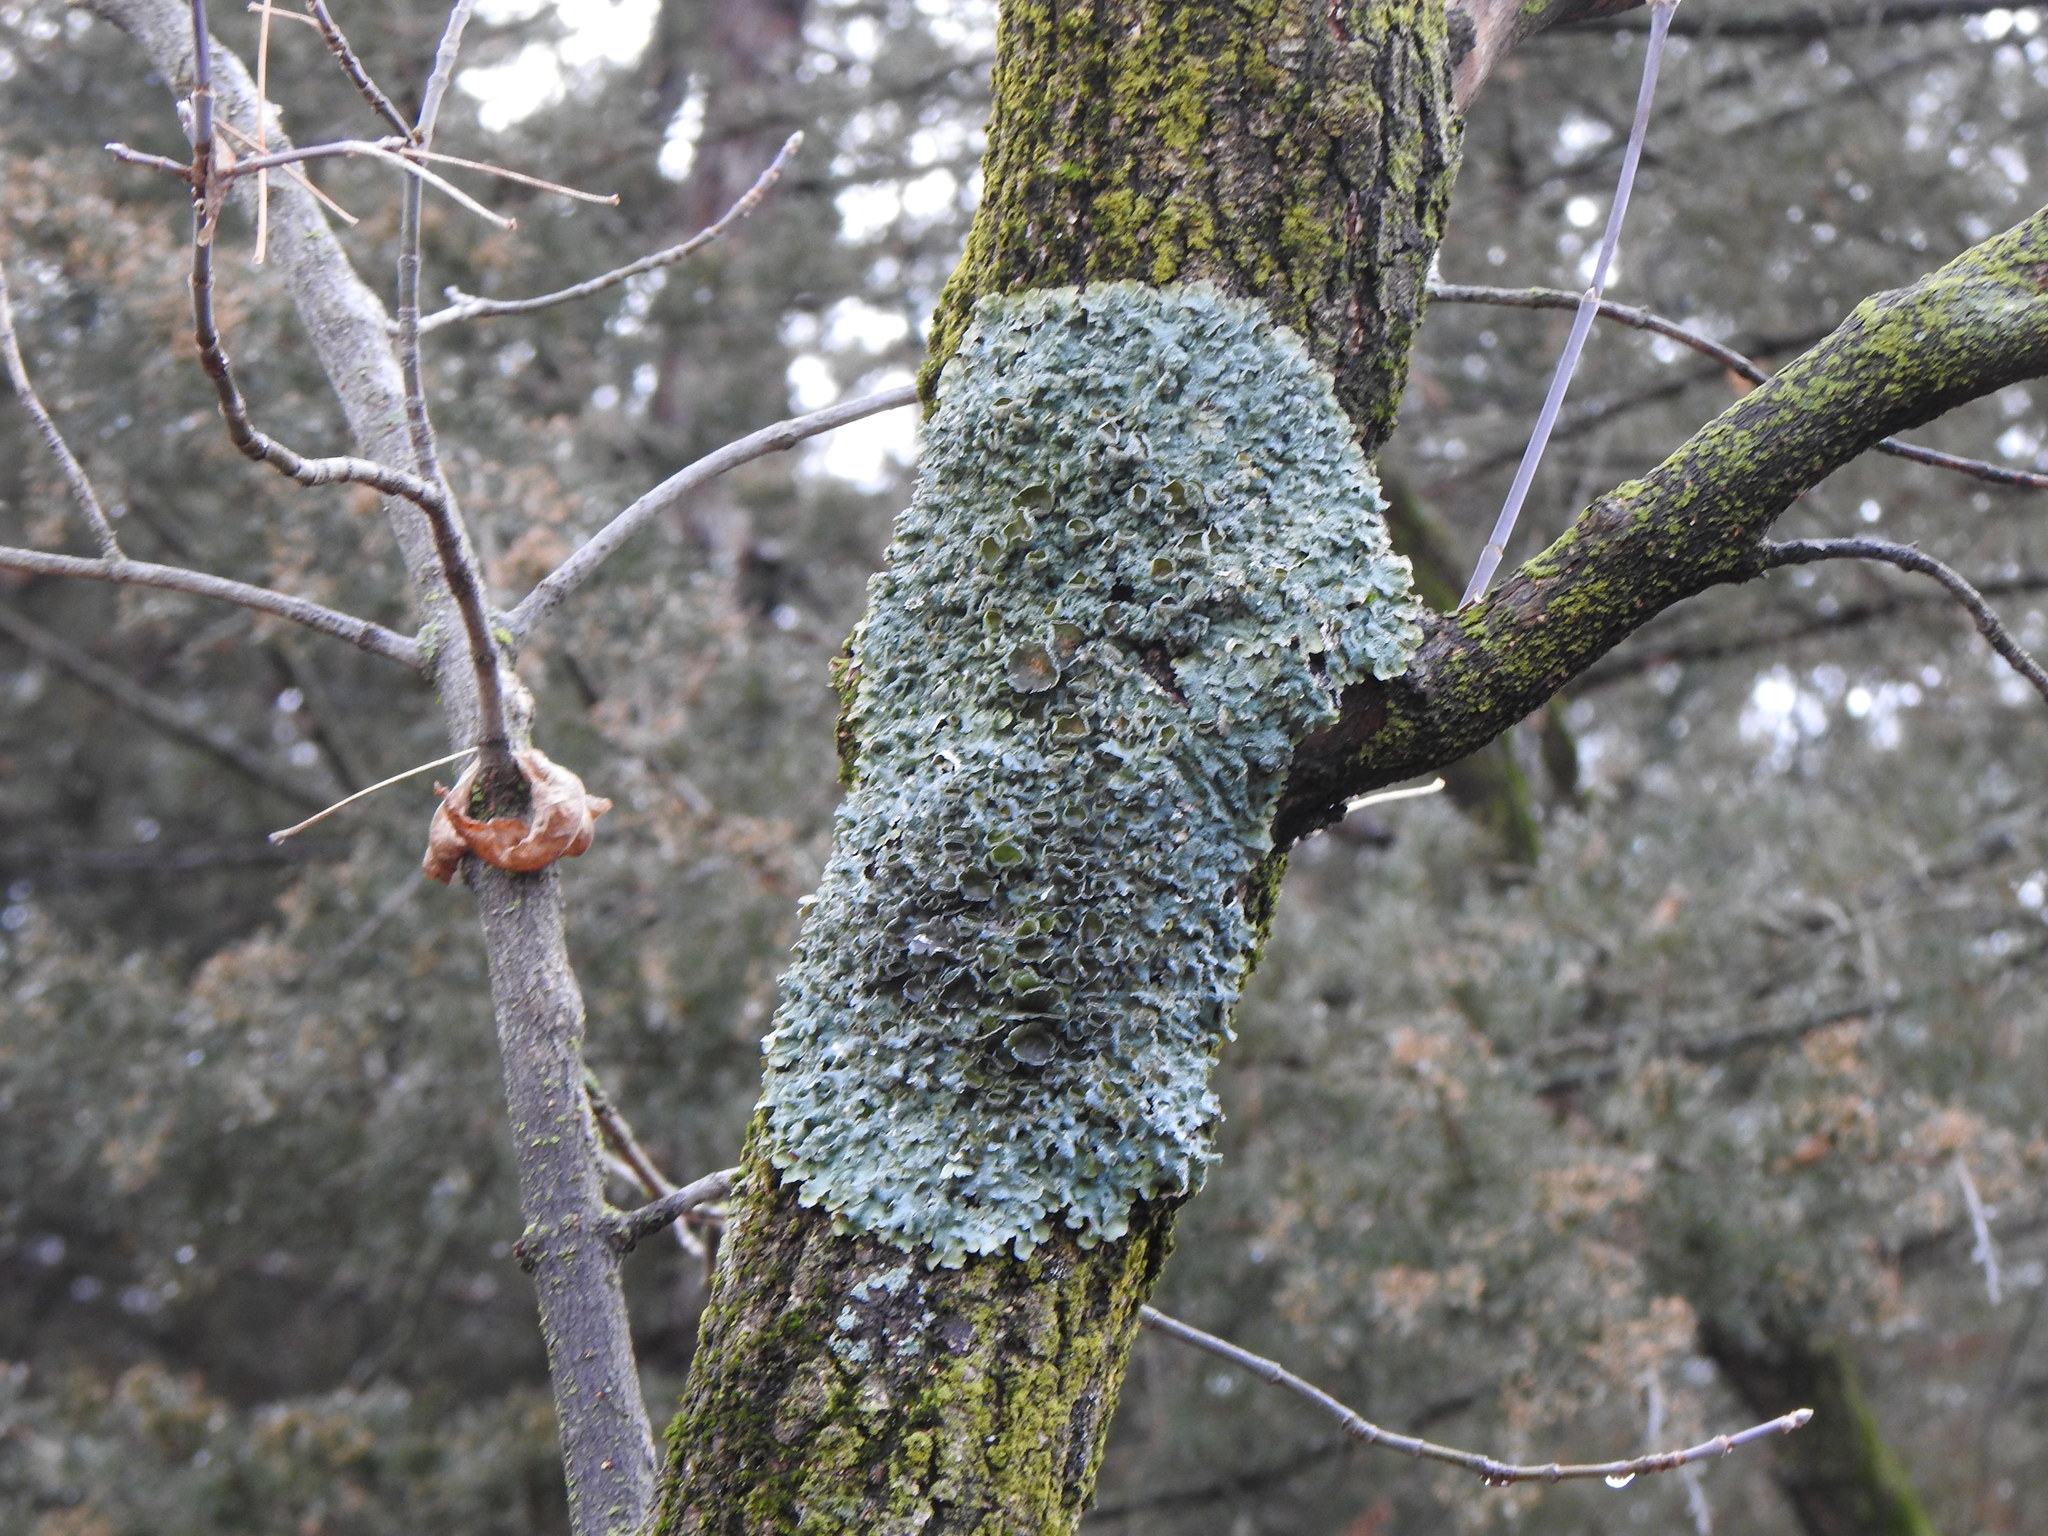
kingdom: Fungi
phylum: Ascomycota
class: Lecanoromycetes
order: Lecanorales
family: Parmeliaceae
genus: Punctelia
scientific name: Punctelia bolliana
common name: Eastern speckled shield lichen
